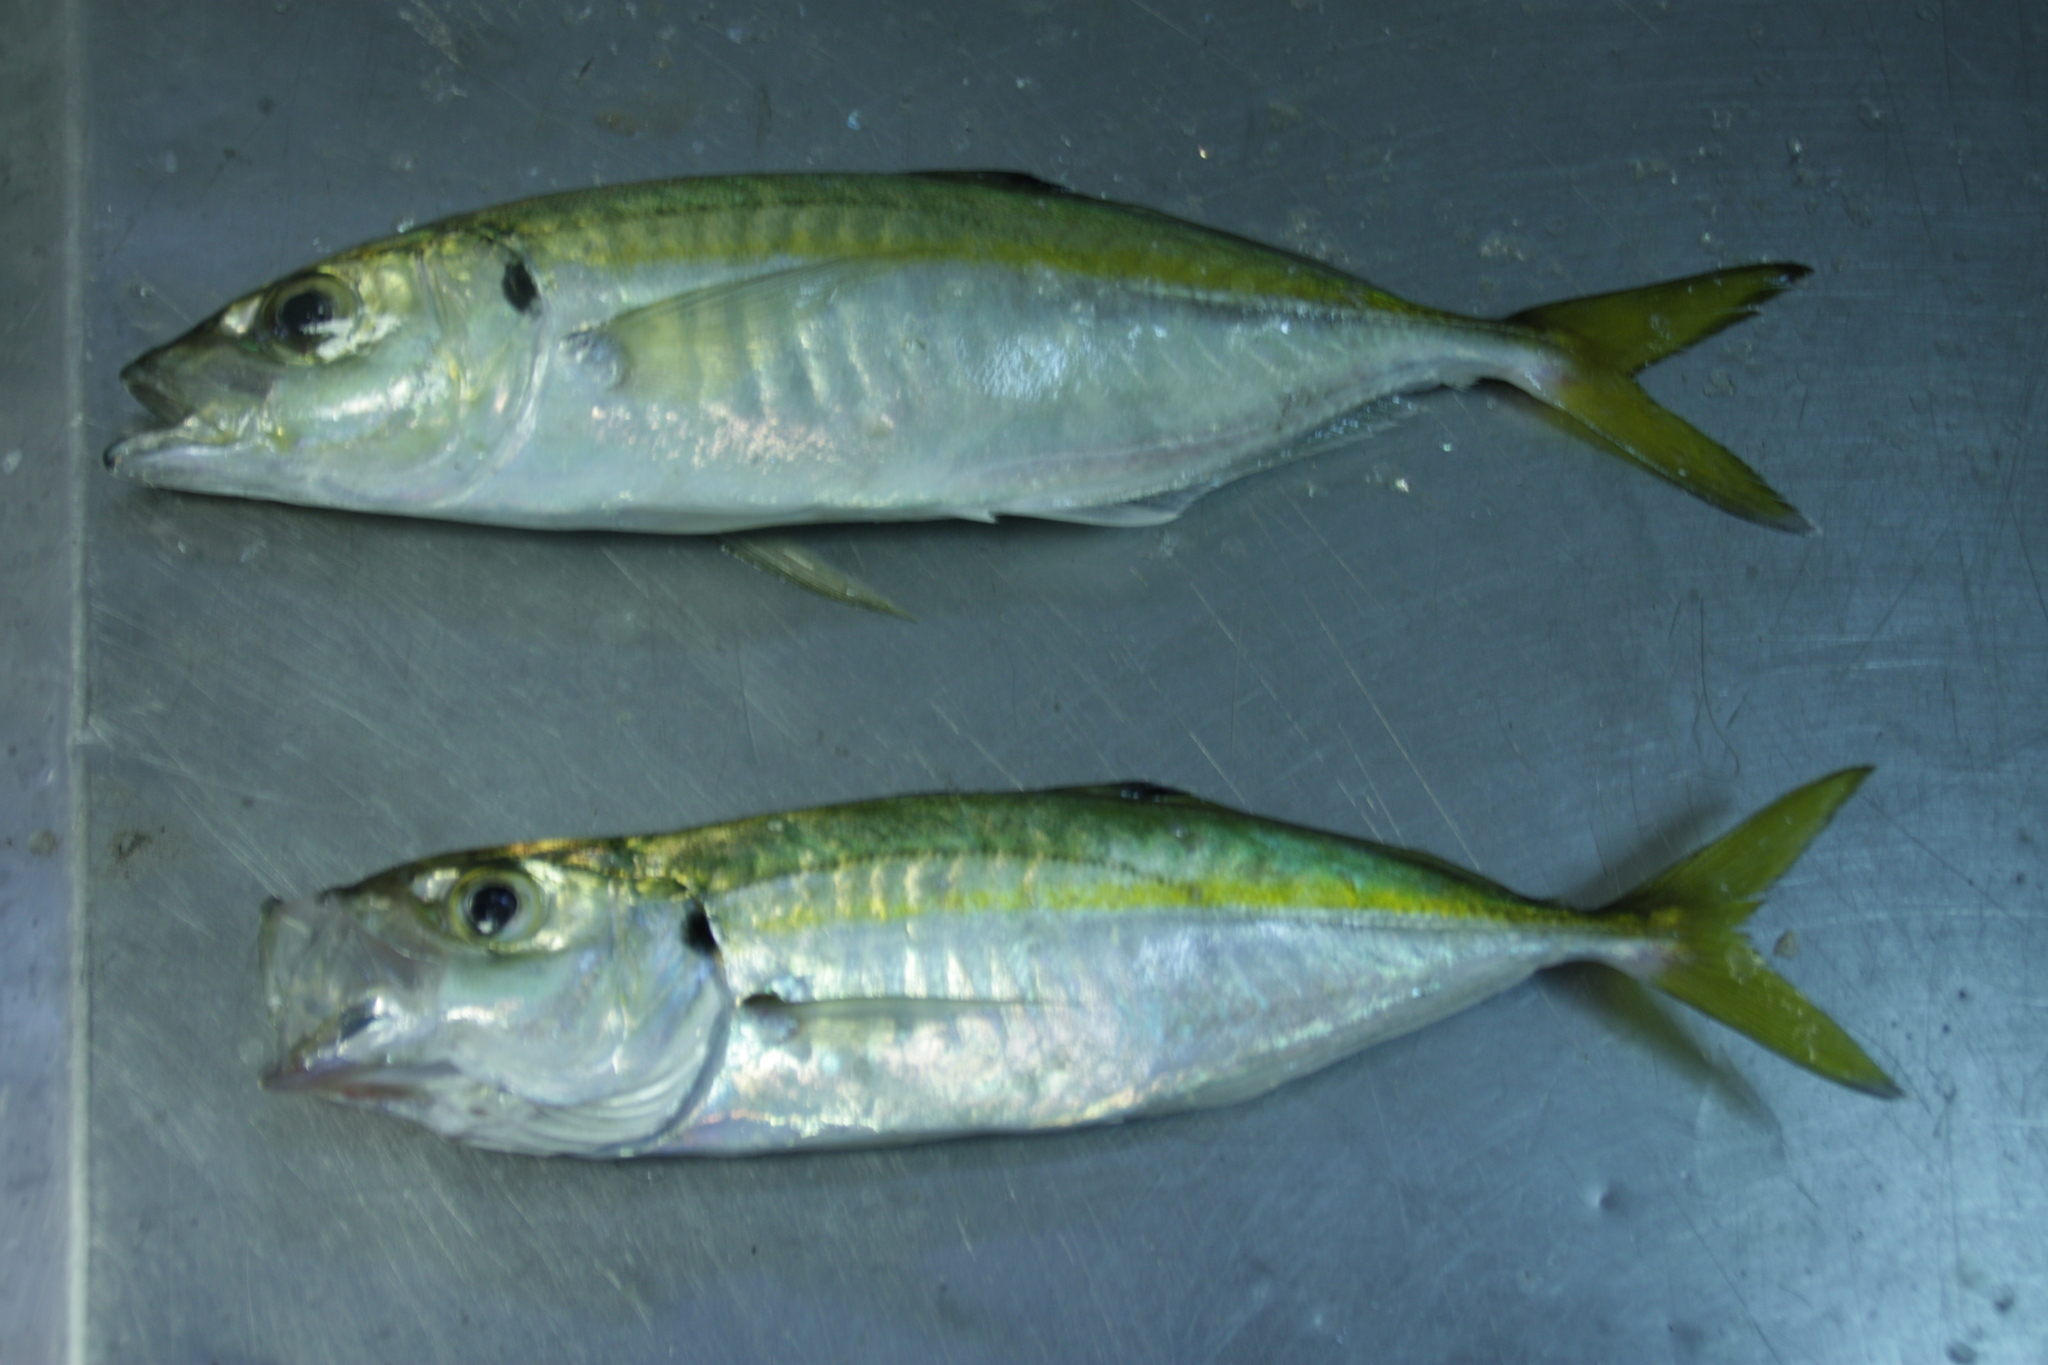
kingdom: Animalia
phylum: Chordata
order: Perciformes
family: Carangidae
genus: Caranx
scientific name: Caranx rhonchus
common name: False scad
